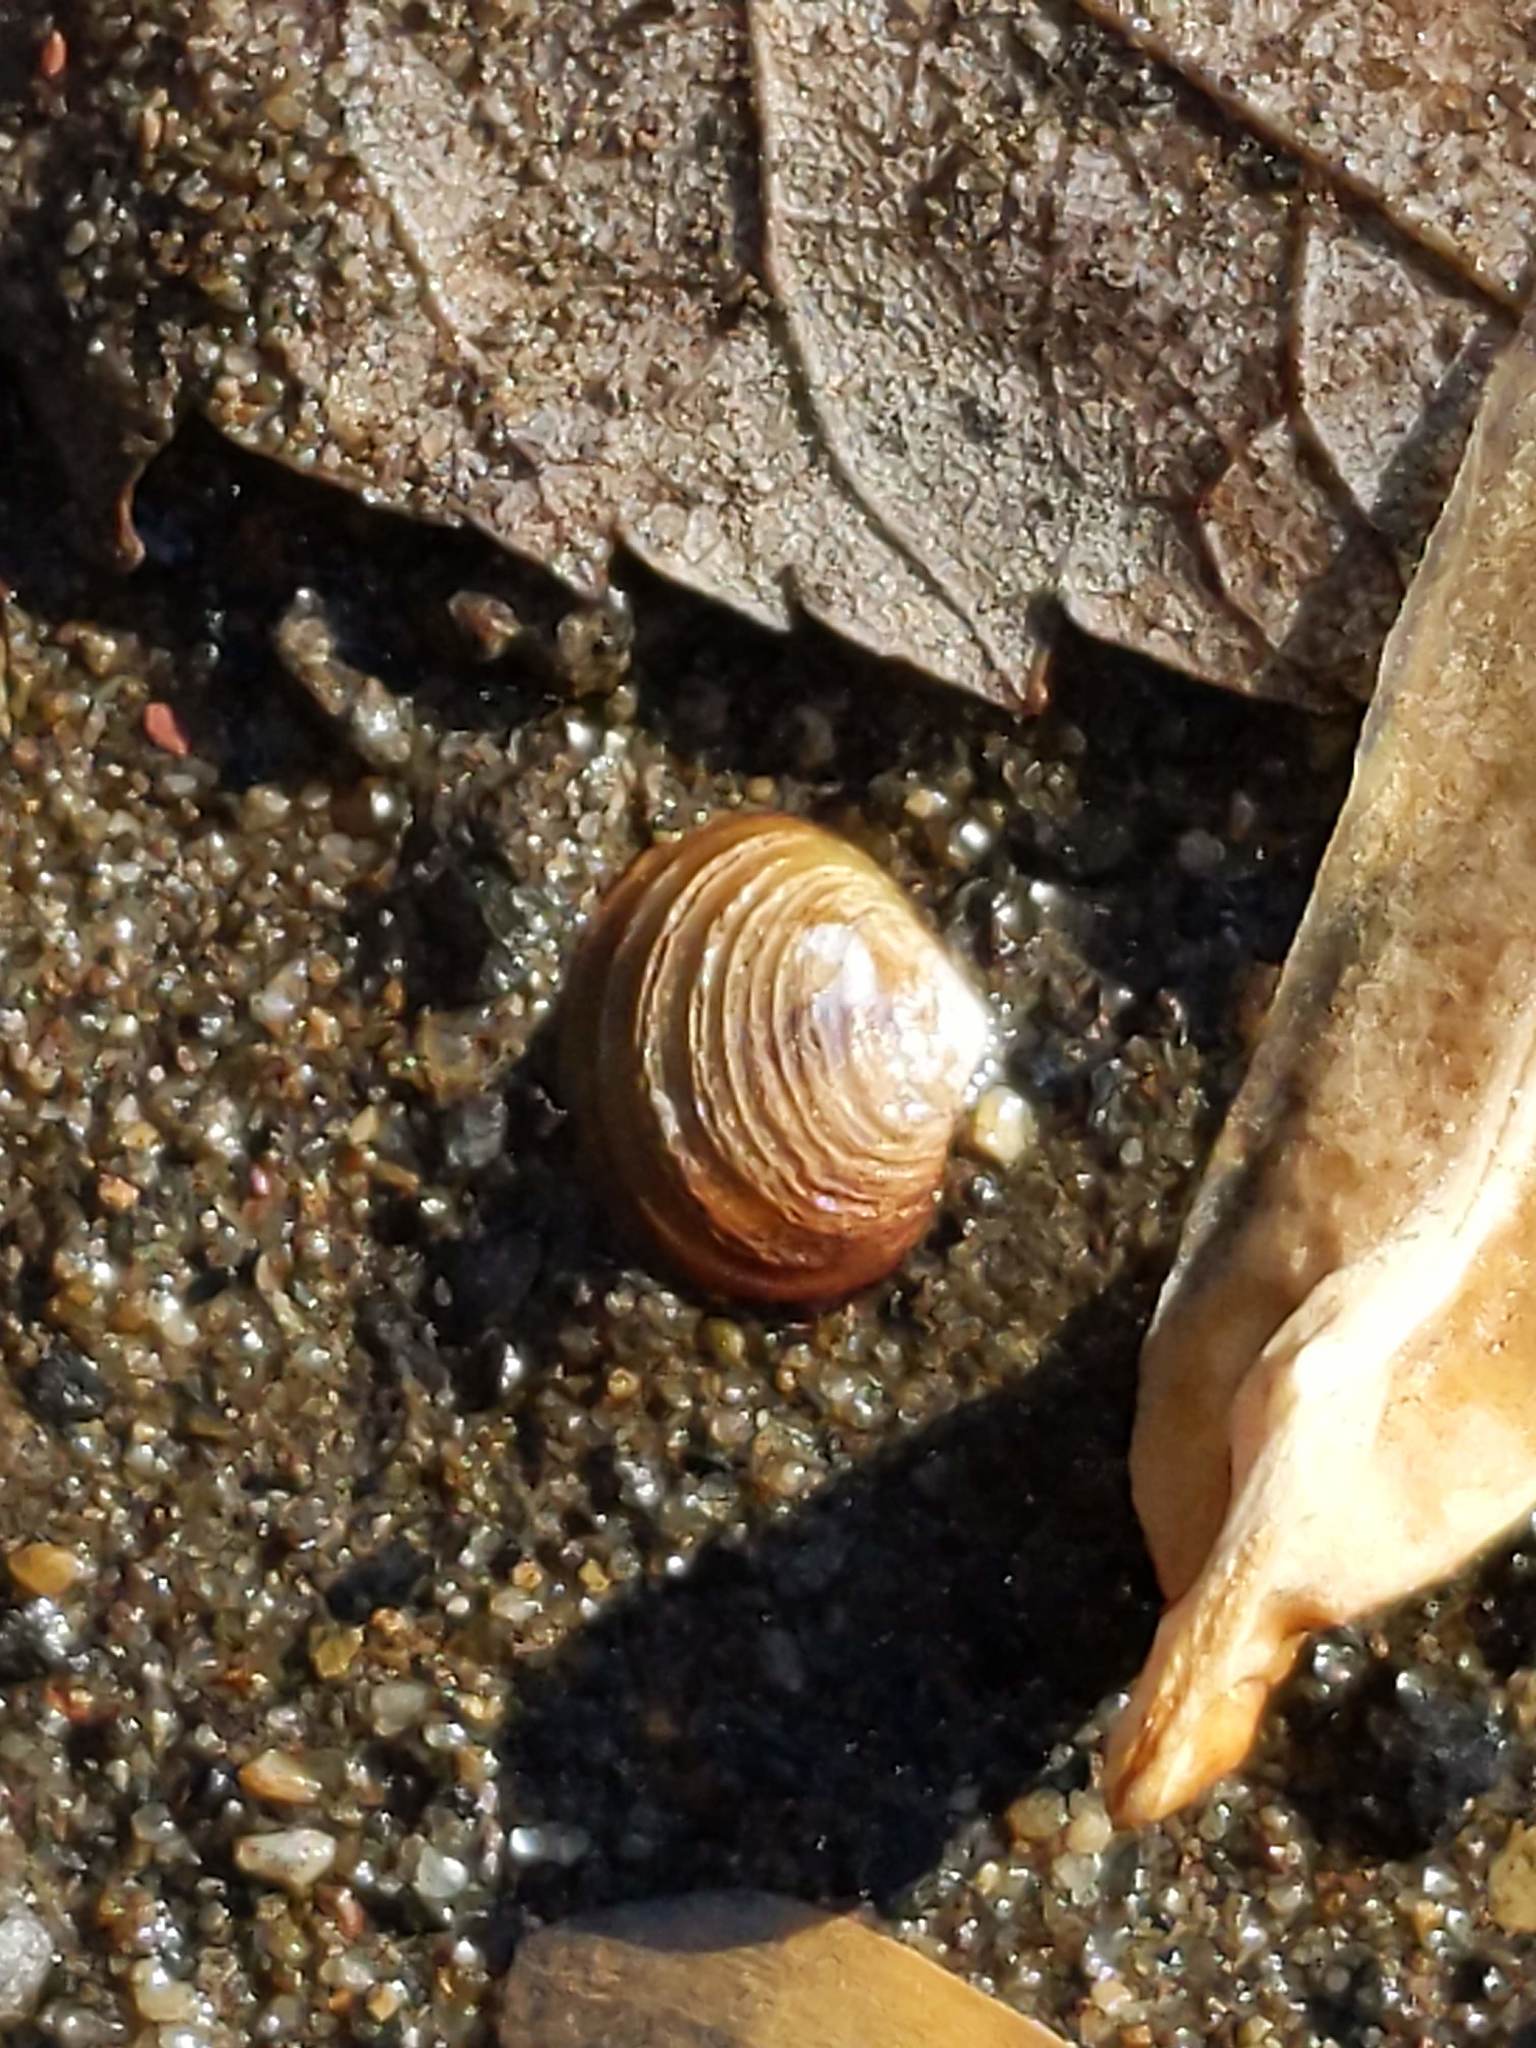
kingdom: Animalia
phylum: Mollusca
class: Bivalvia
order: Venerida
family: Cyrenidae
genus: Corbicula
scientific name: Corbicula fluminea
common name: Asian clam
